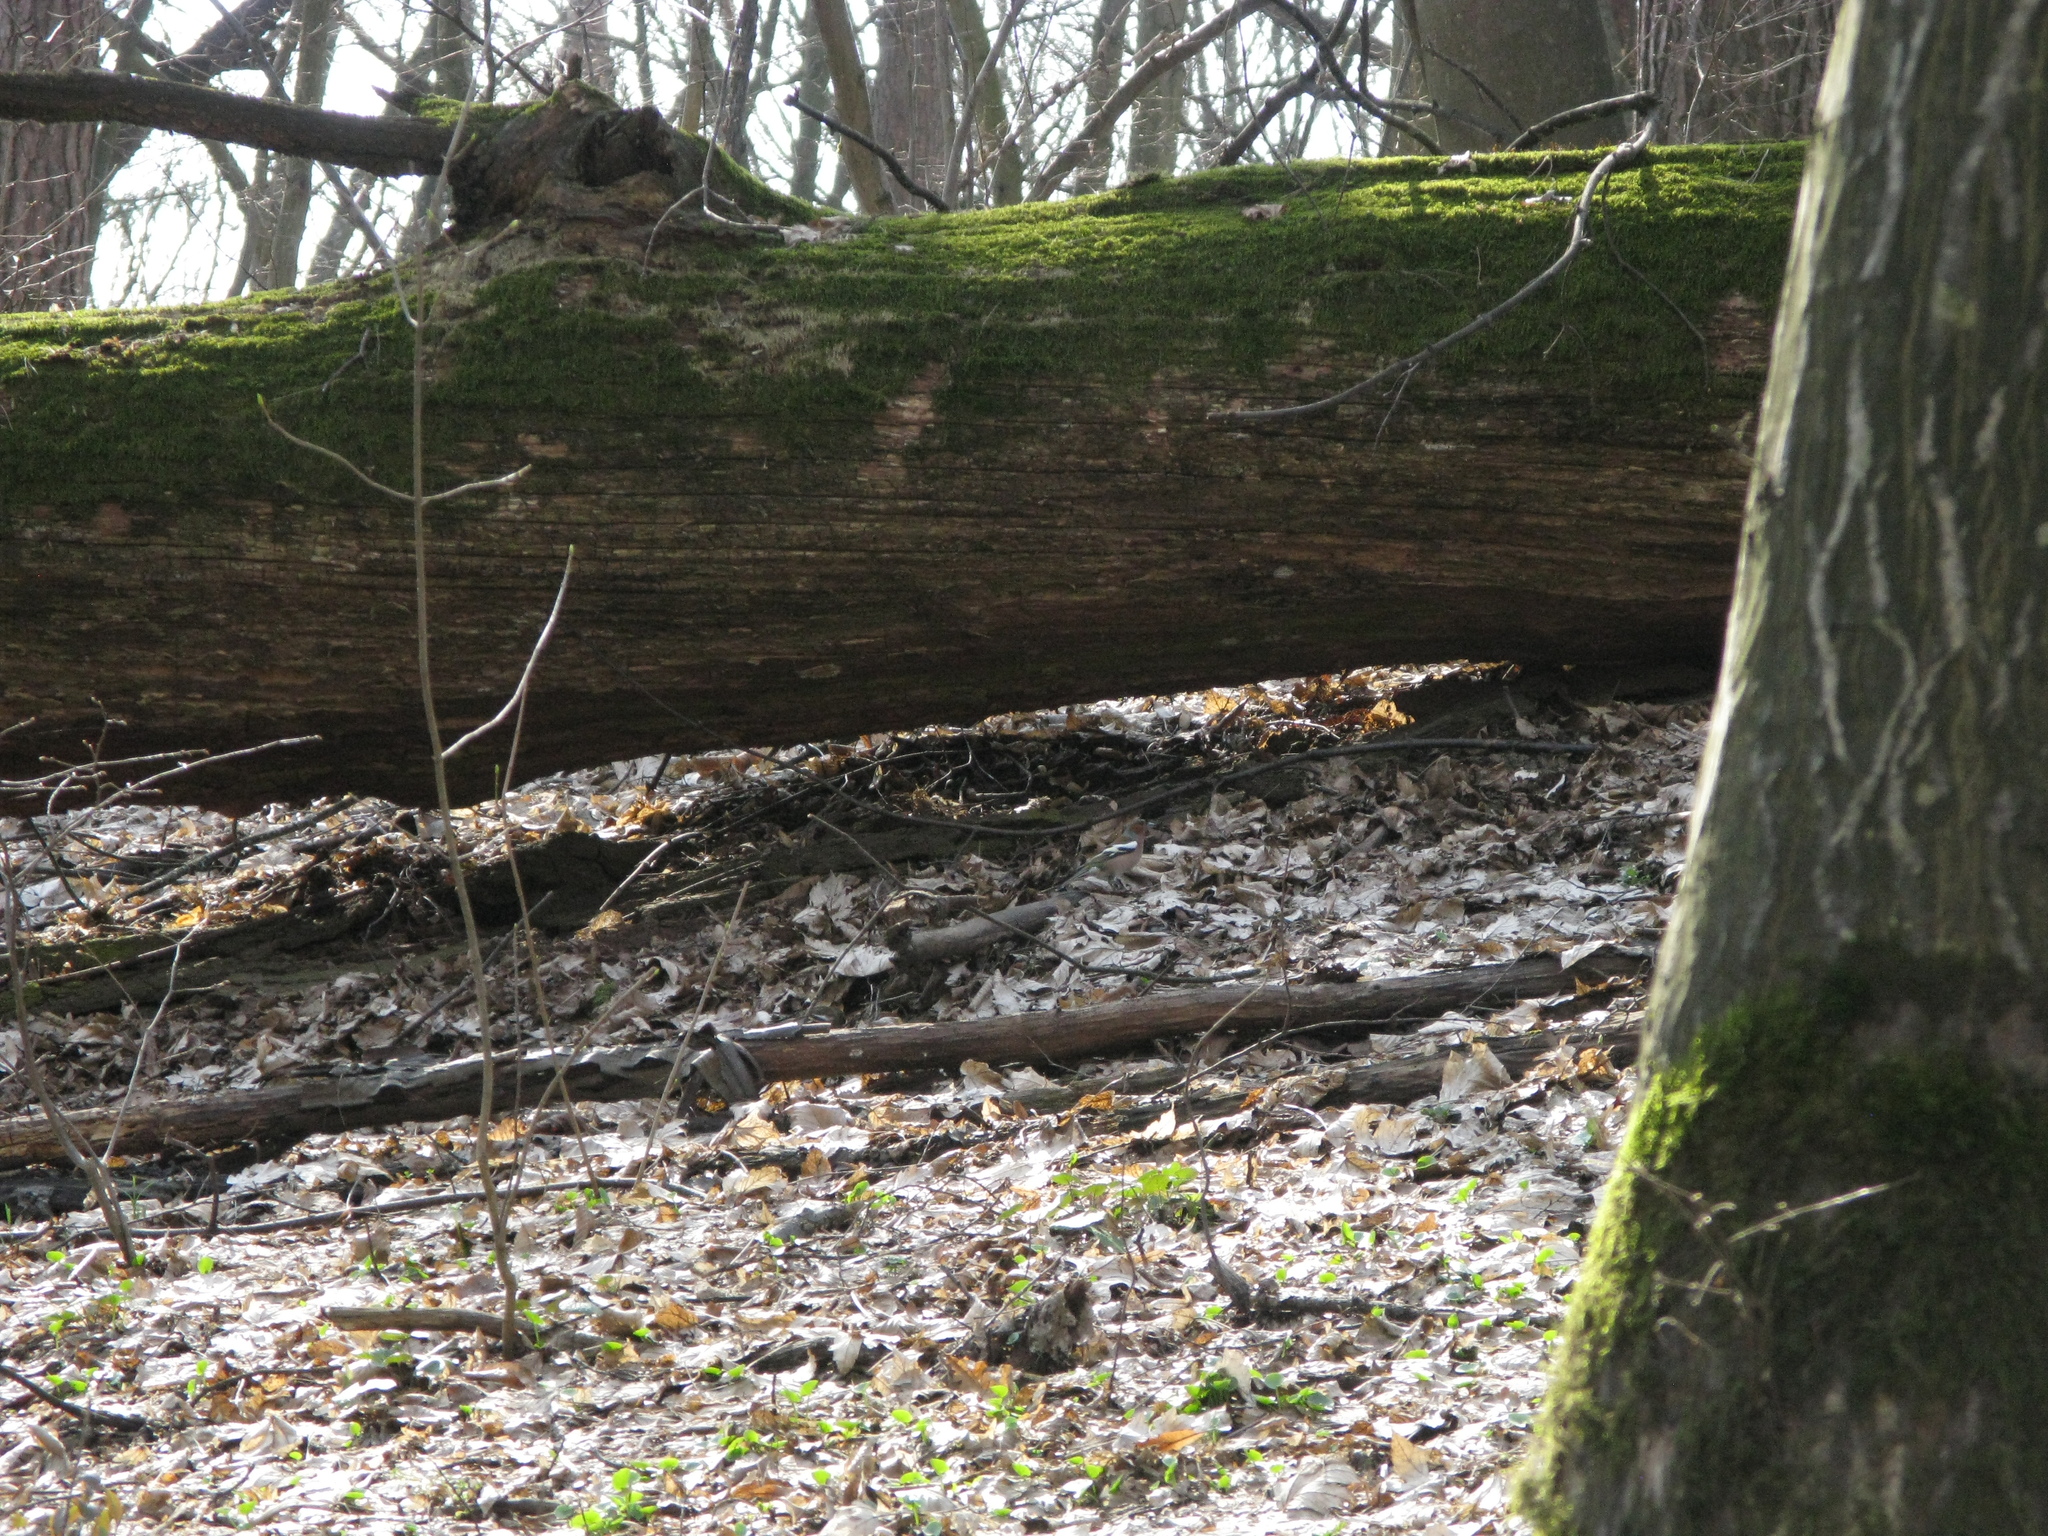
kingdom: Animalia
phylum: Chordata
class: Aves
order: Passeriformes
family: Fringillidae
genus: Fringilla
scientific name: Fringilla coelebs
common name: Common chaffinch
